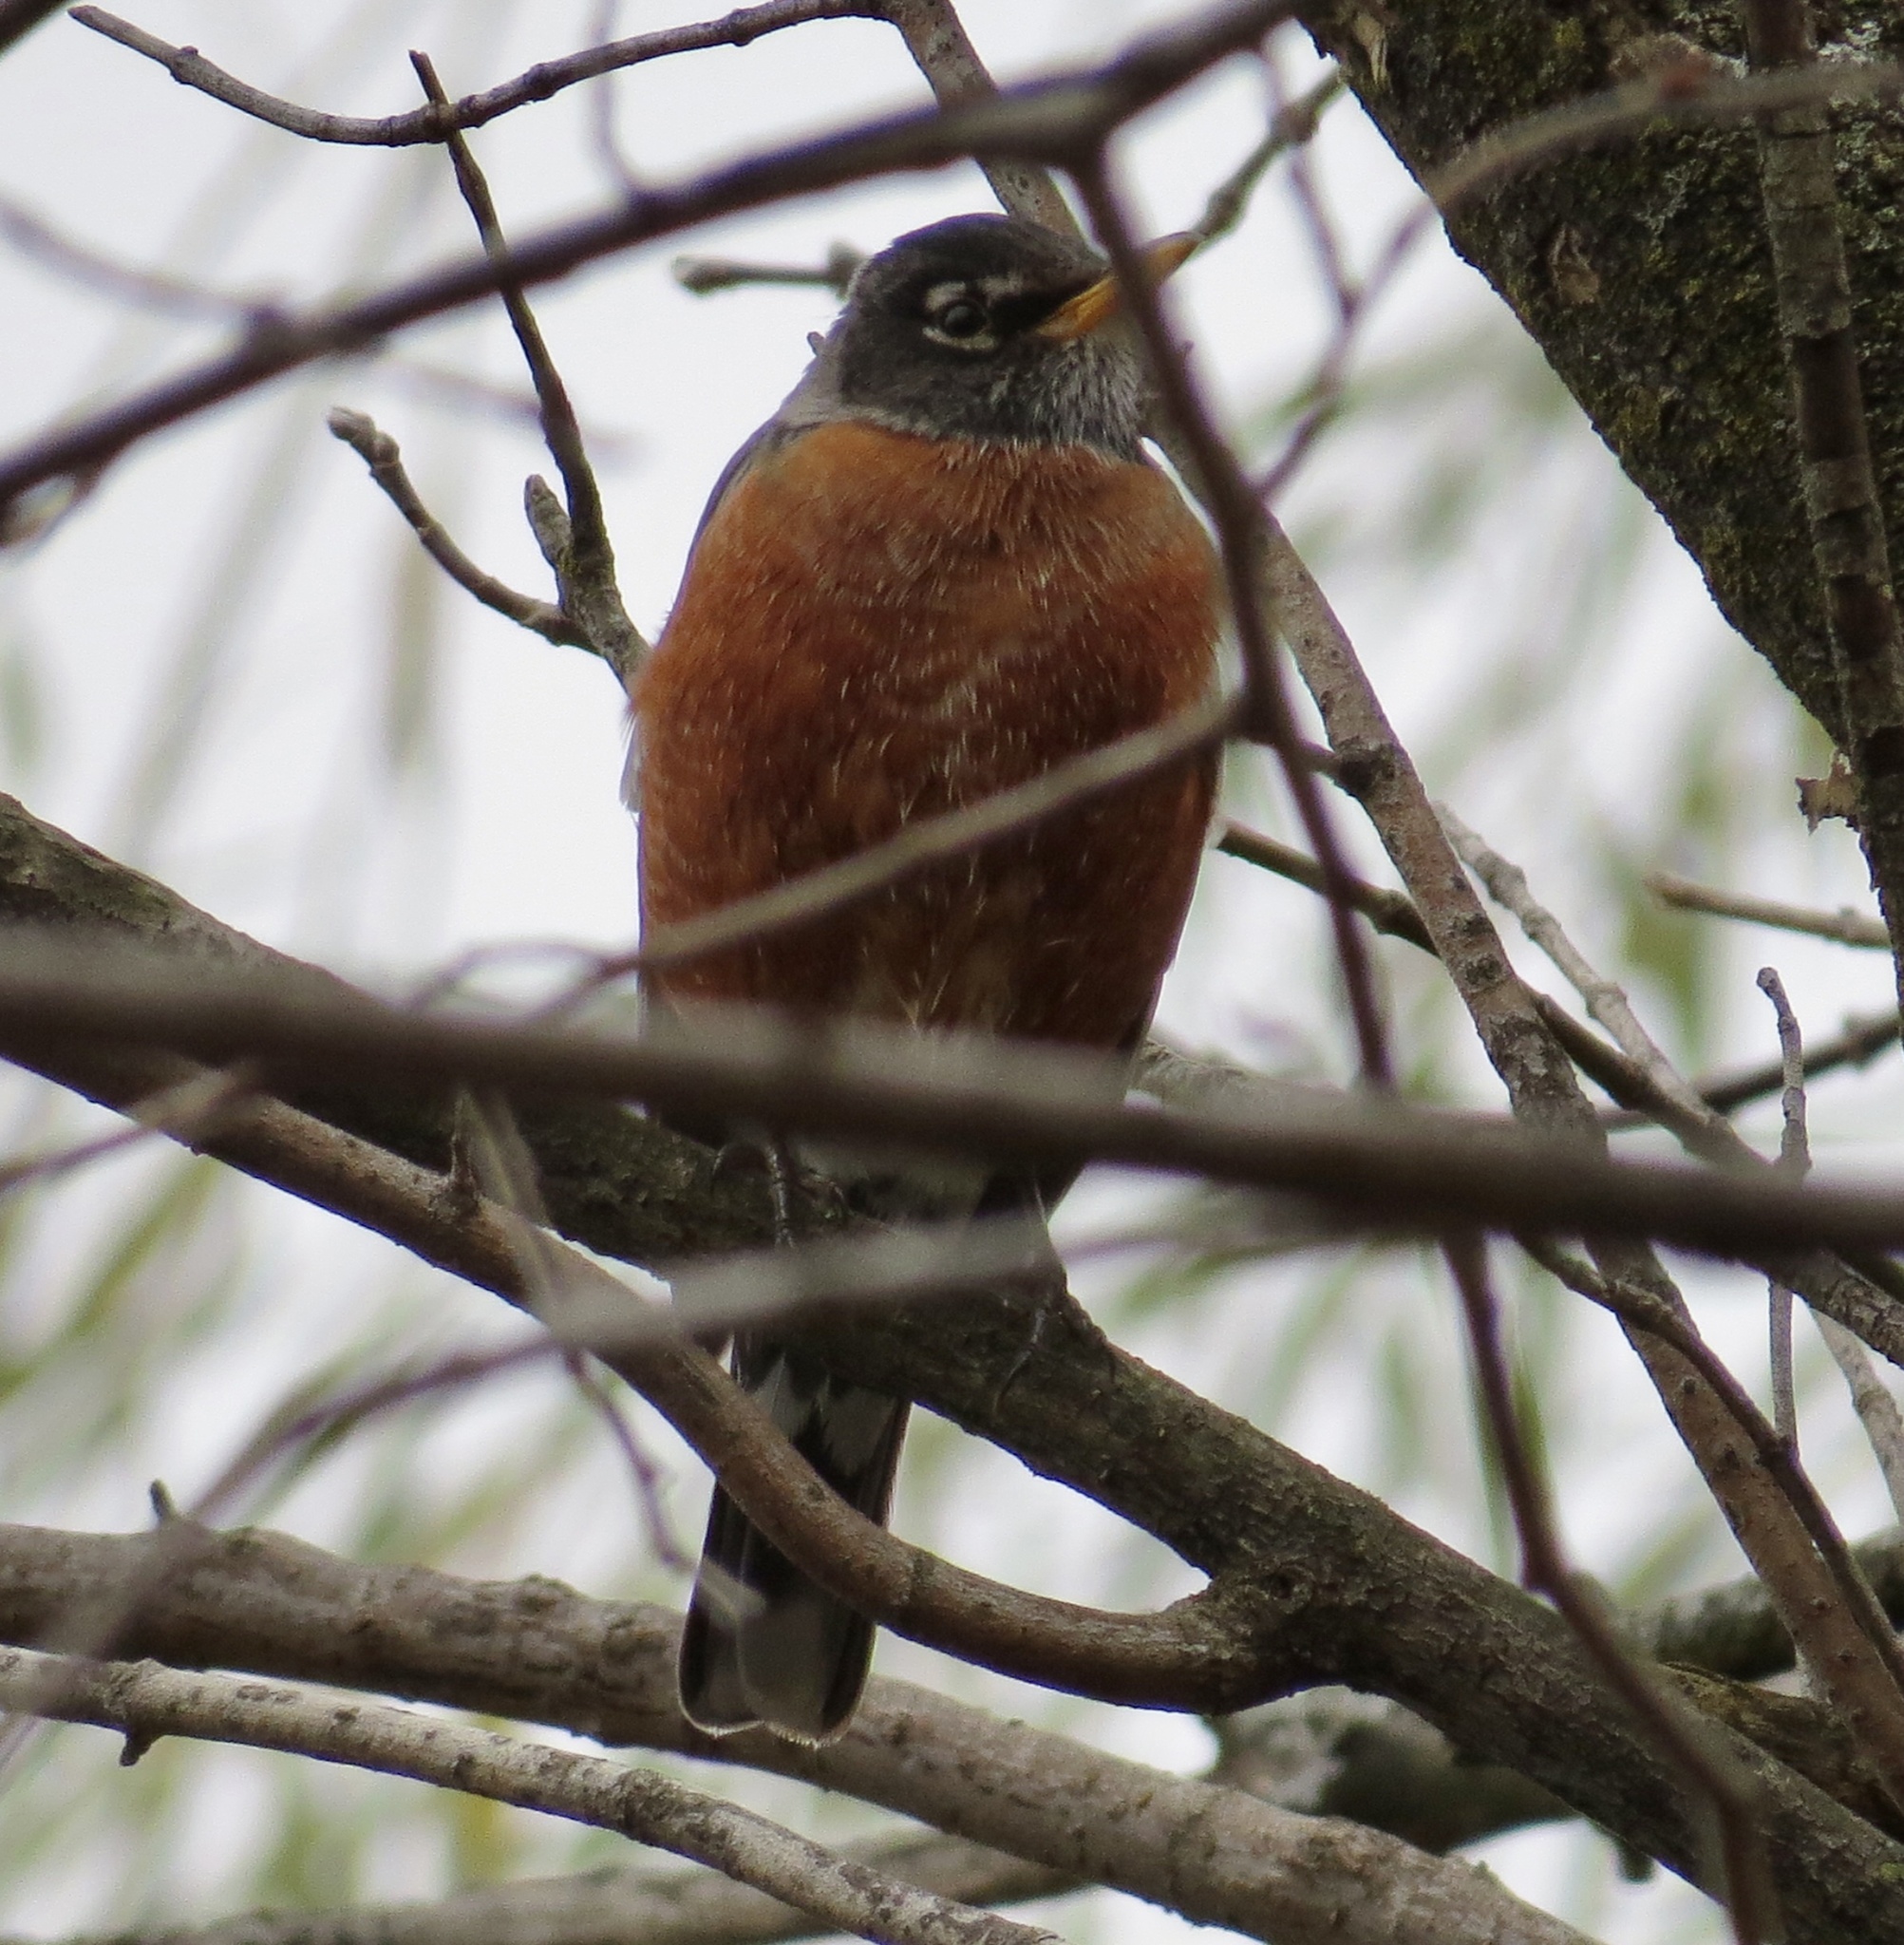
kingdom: Animalia
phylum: Chordata
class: Aves
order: Passeriformes
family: Turdidae
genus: Turdus
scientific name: Turdus migratorius
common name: American robin
